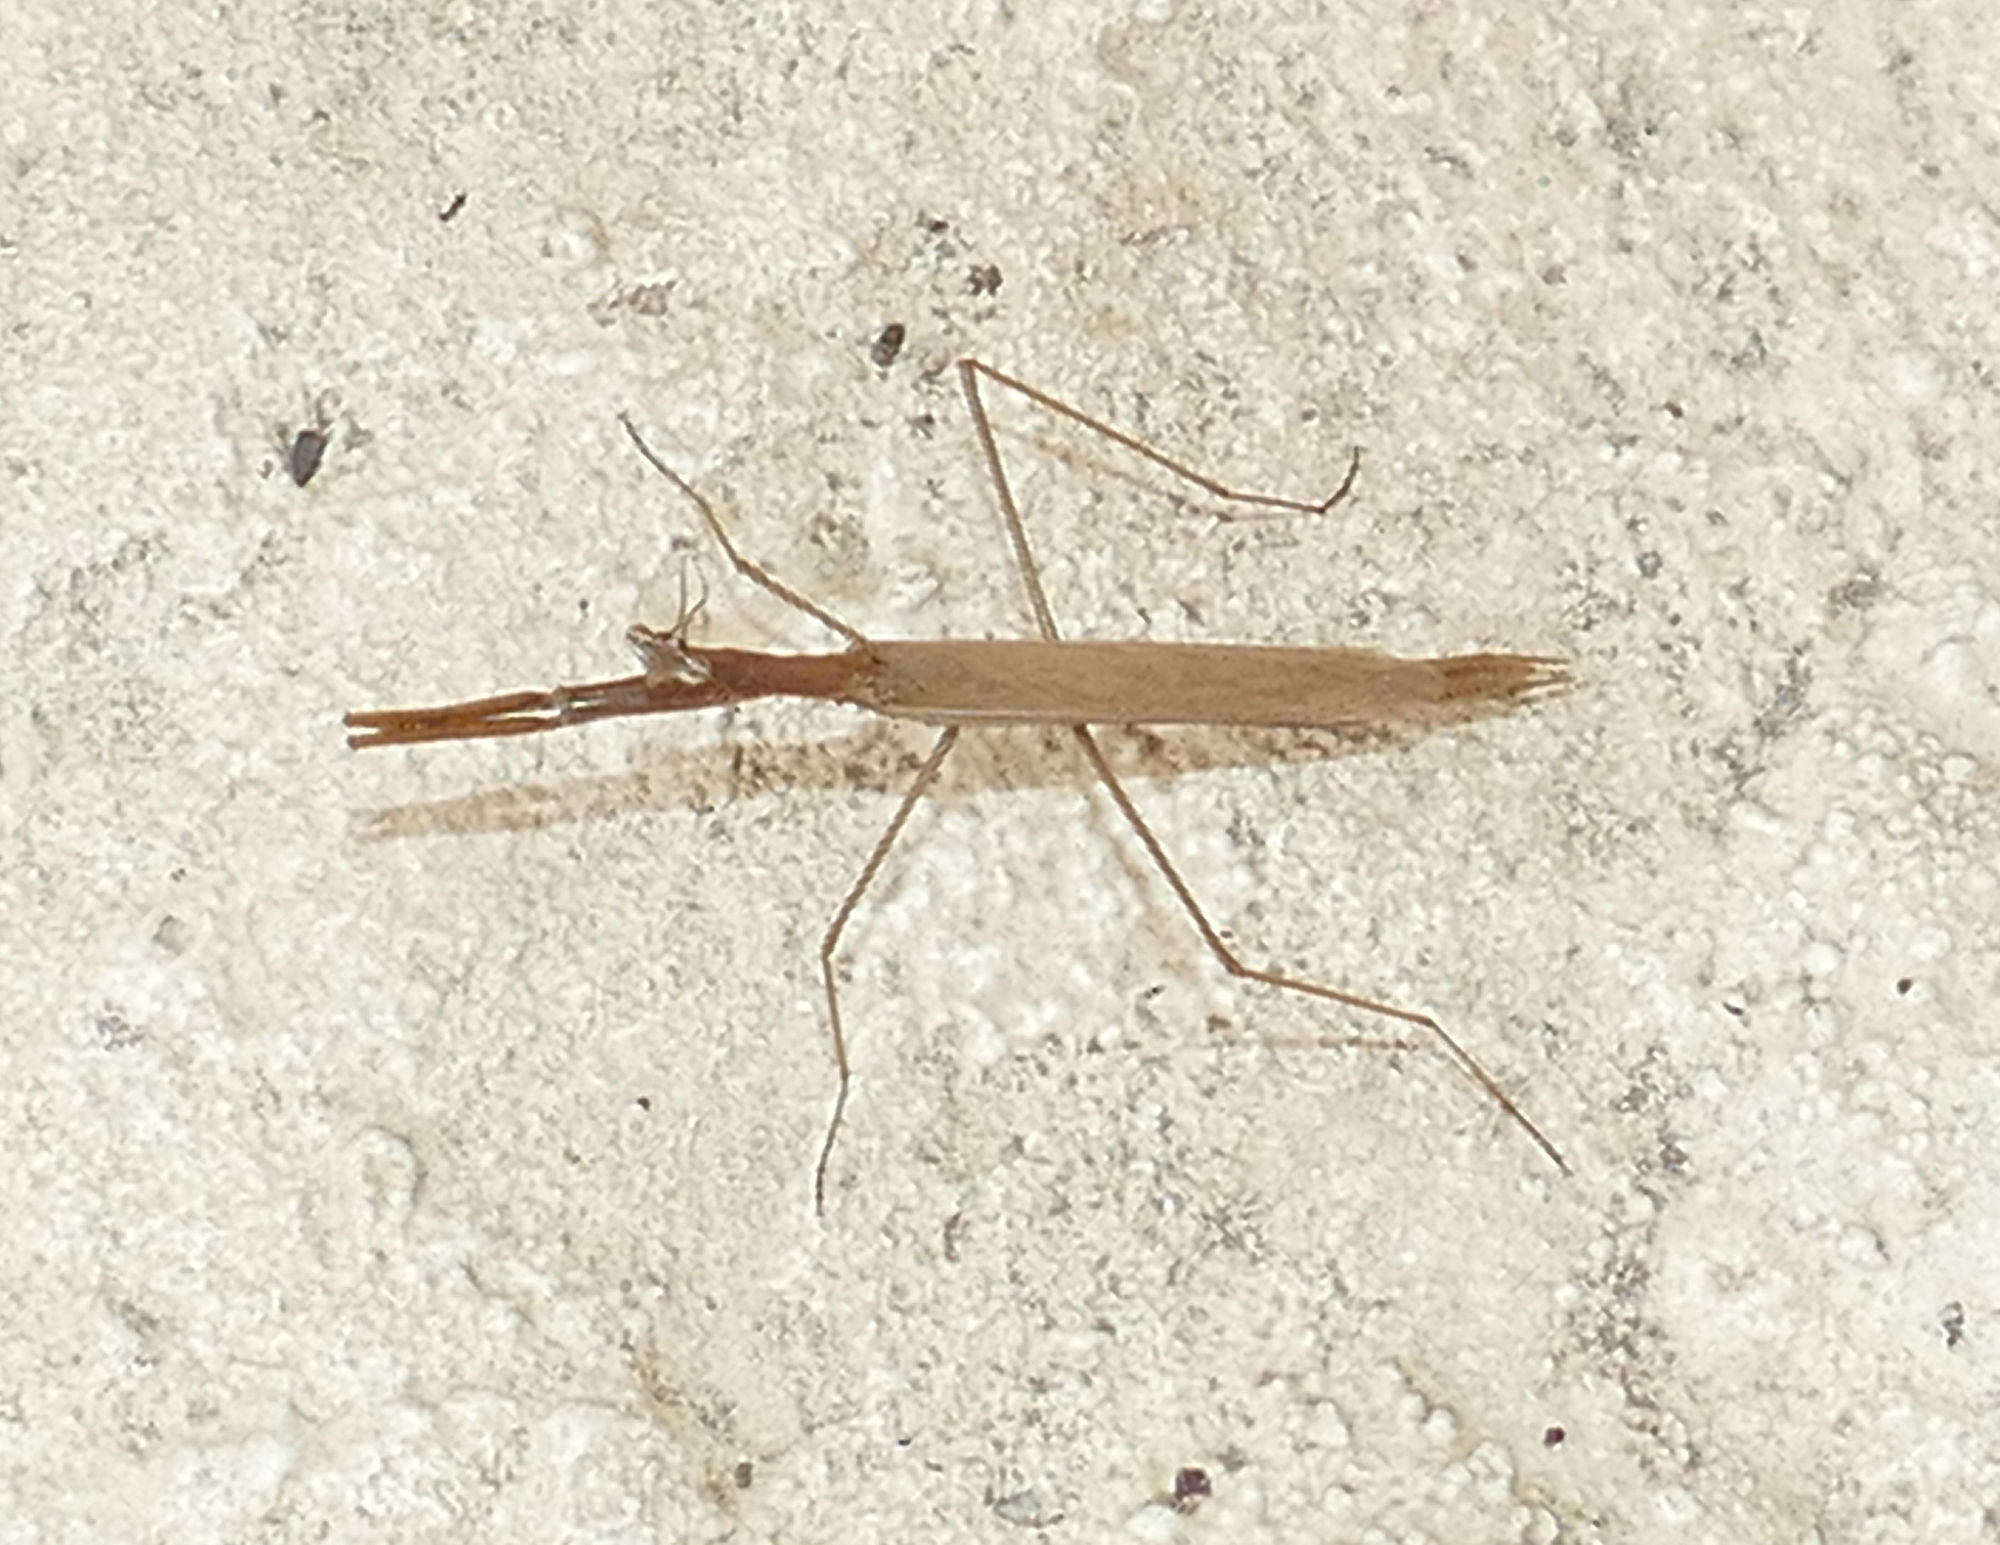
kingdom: Animalia
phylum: Arthropoda
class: Insecta
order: Mantodea
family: Thespidae
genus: Oligonicella
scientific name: Oligonicella scudderi
